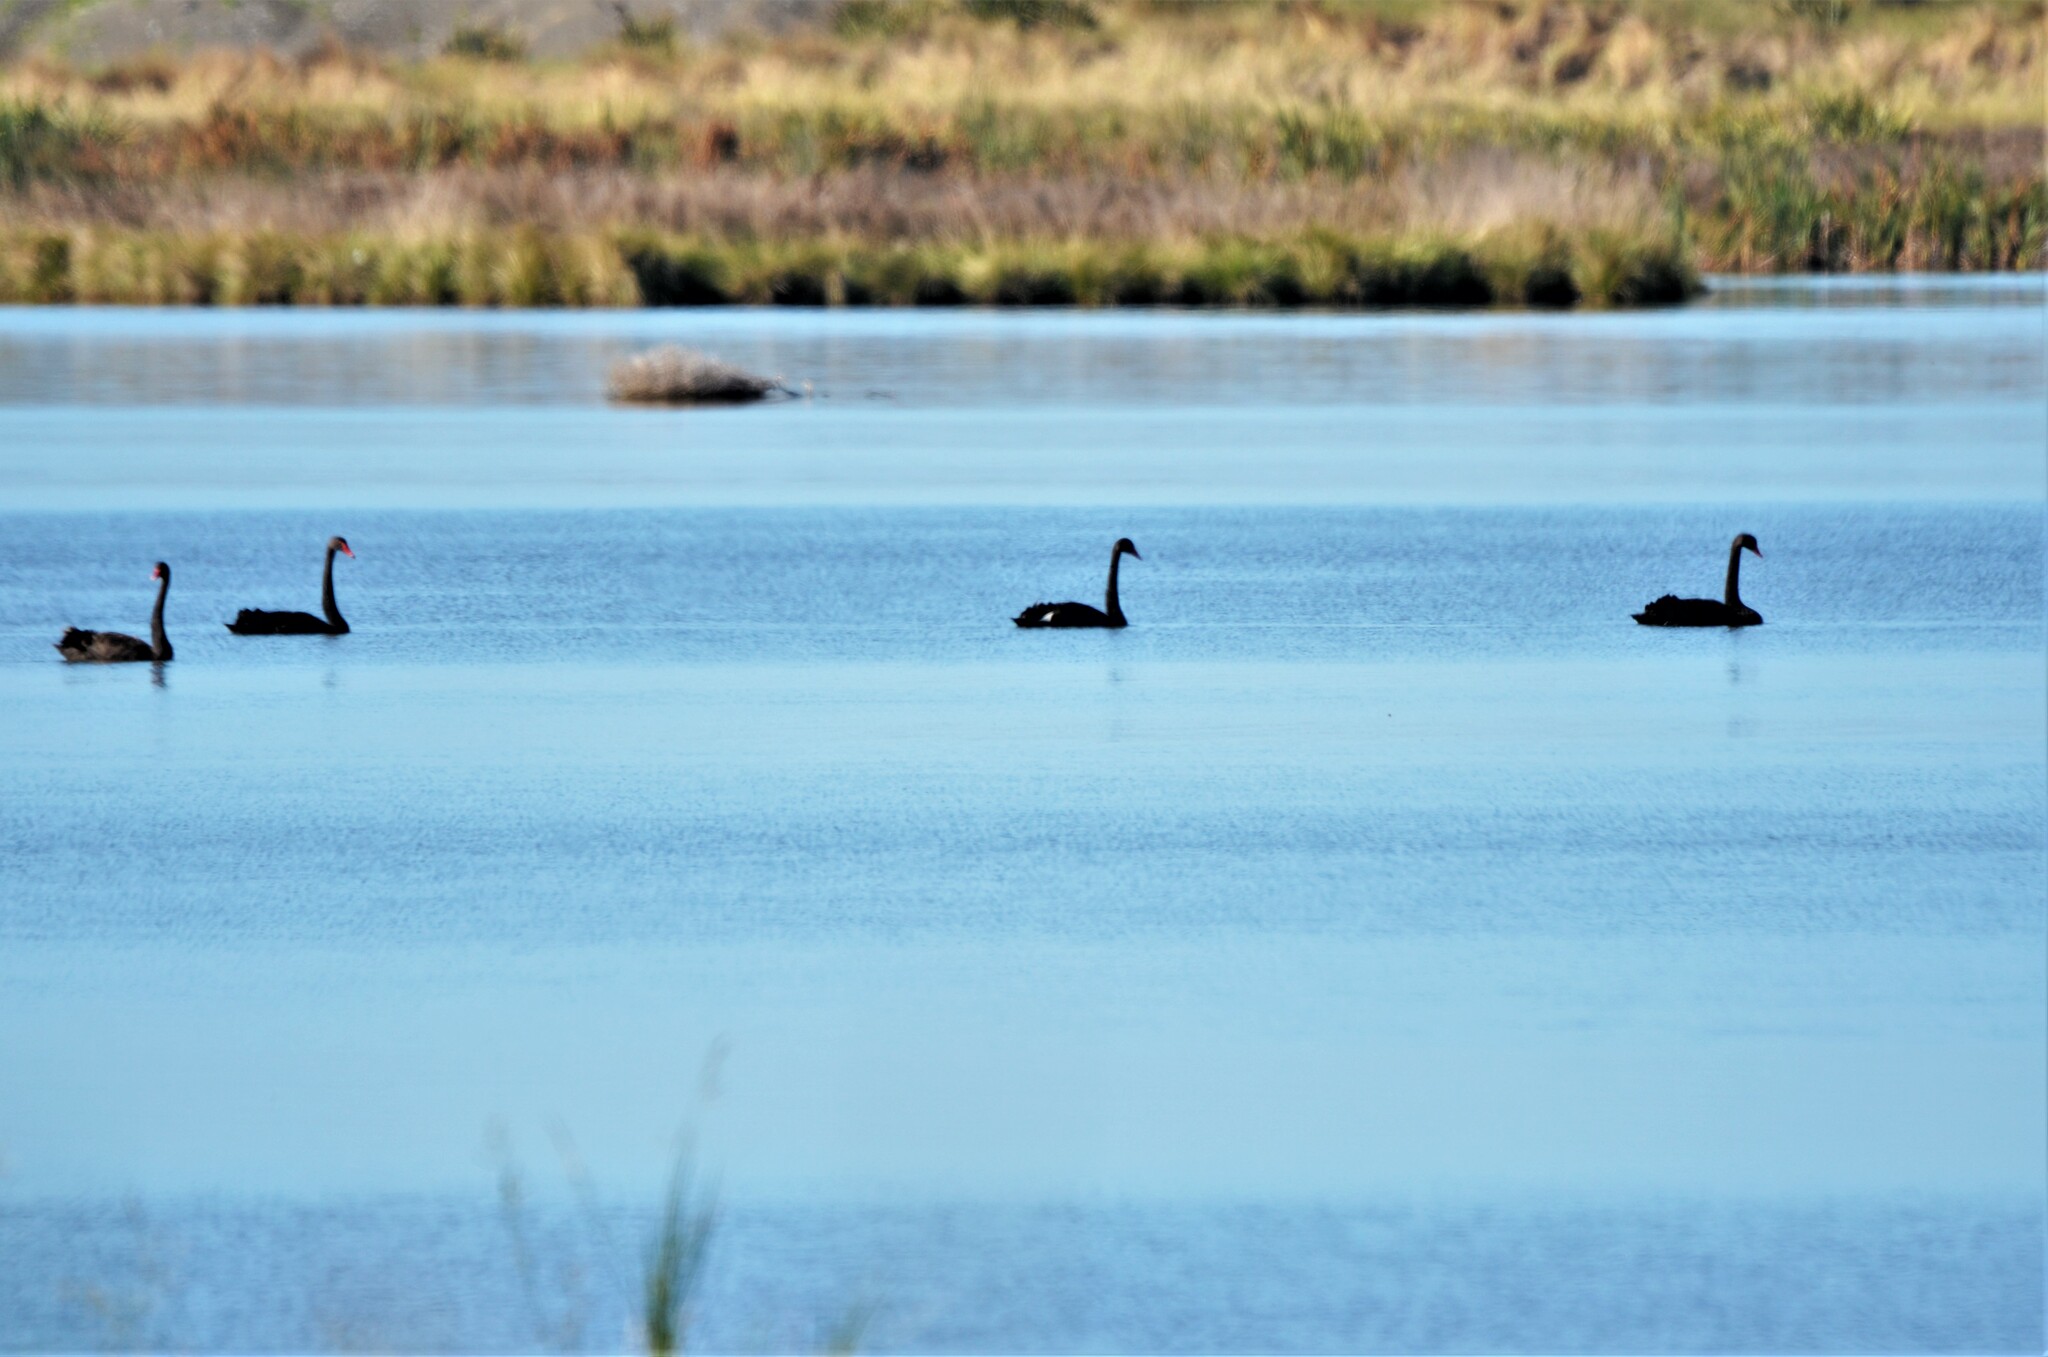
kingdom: Animalia
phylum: Chordata
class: Aves
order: Anseriformes
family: Anatidae
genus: Cygnus
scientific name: Cygnus atratus
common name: Black swan
